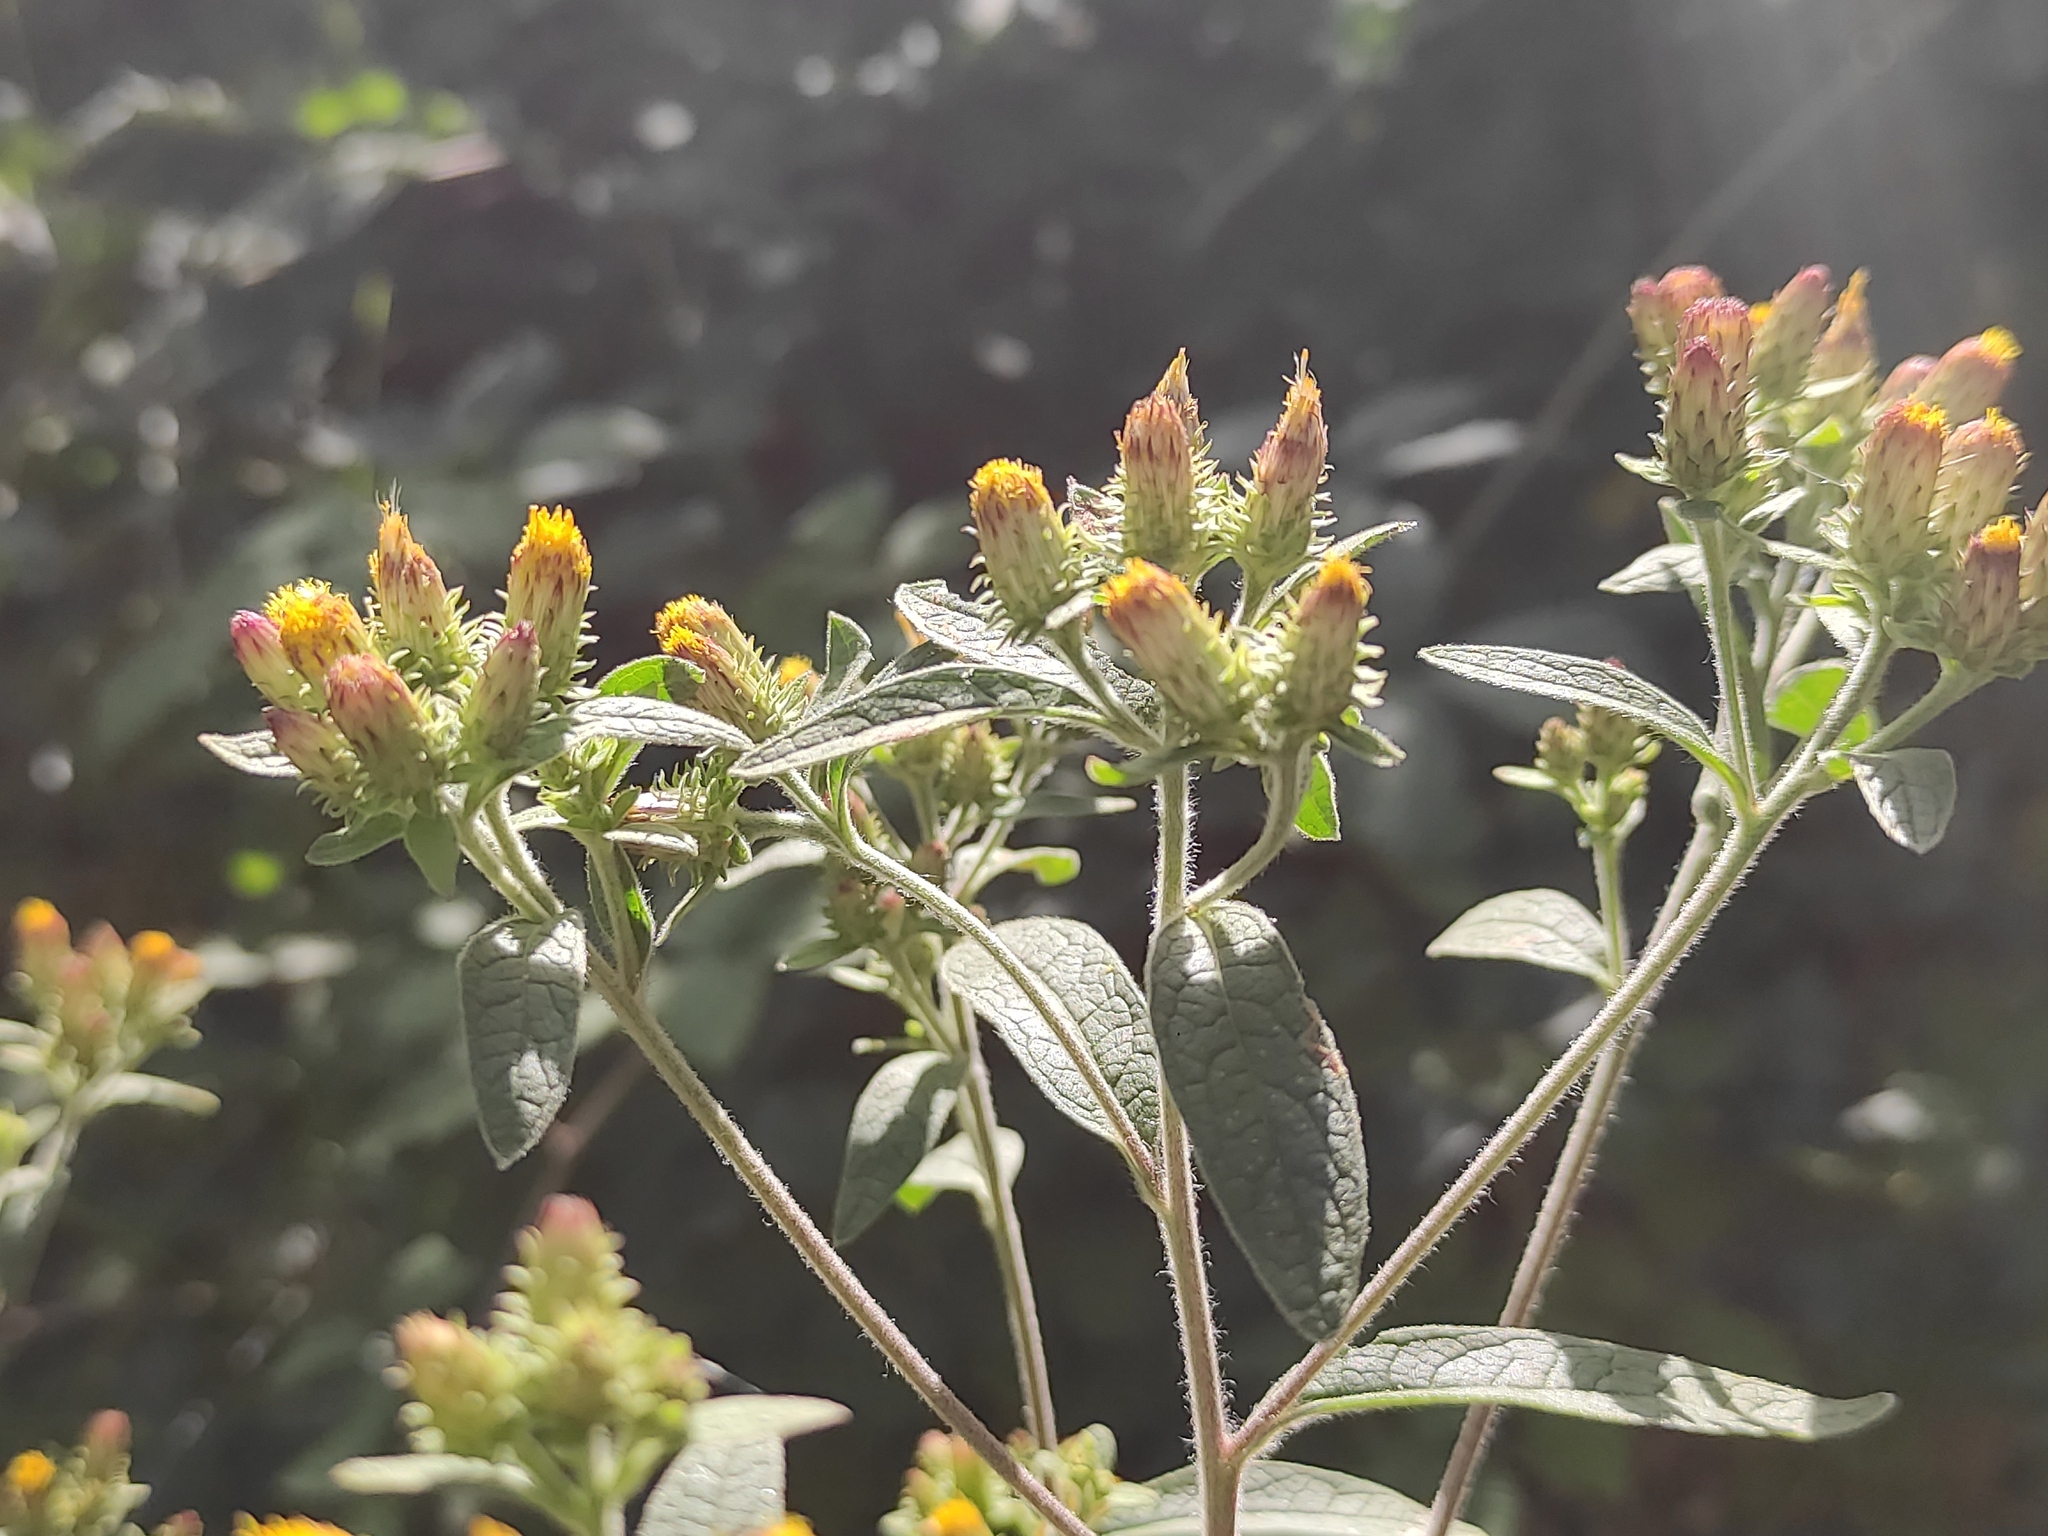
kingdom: Plantae
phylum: Tracheophyta
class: Magnoliopsida
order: Asterales
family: Asteraceae
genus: Pentanema
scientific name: Pentanema squarrosum
